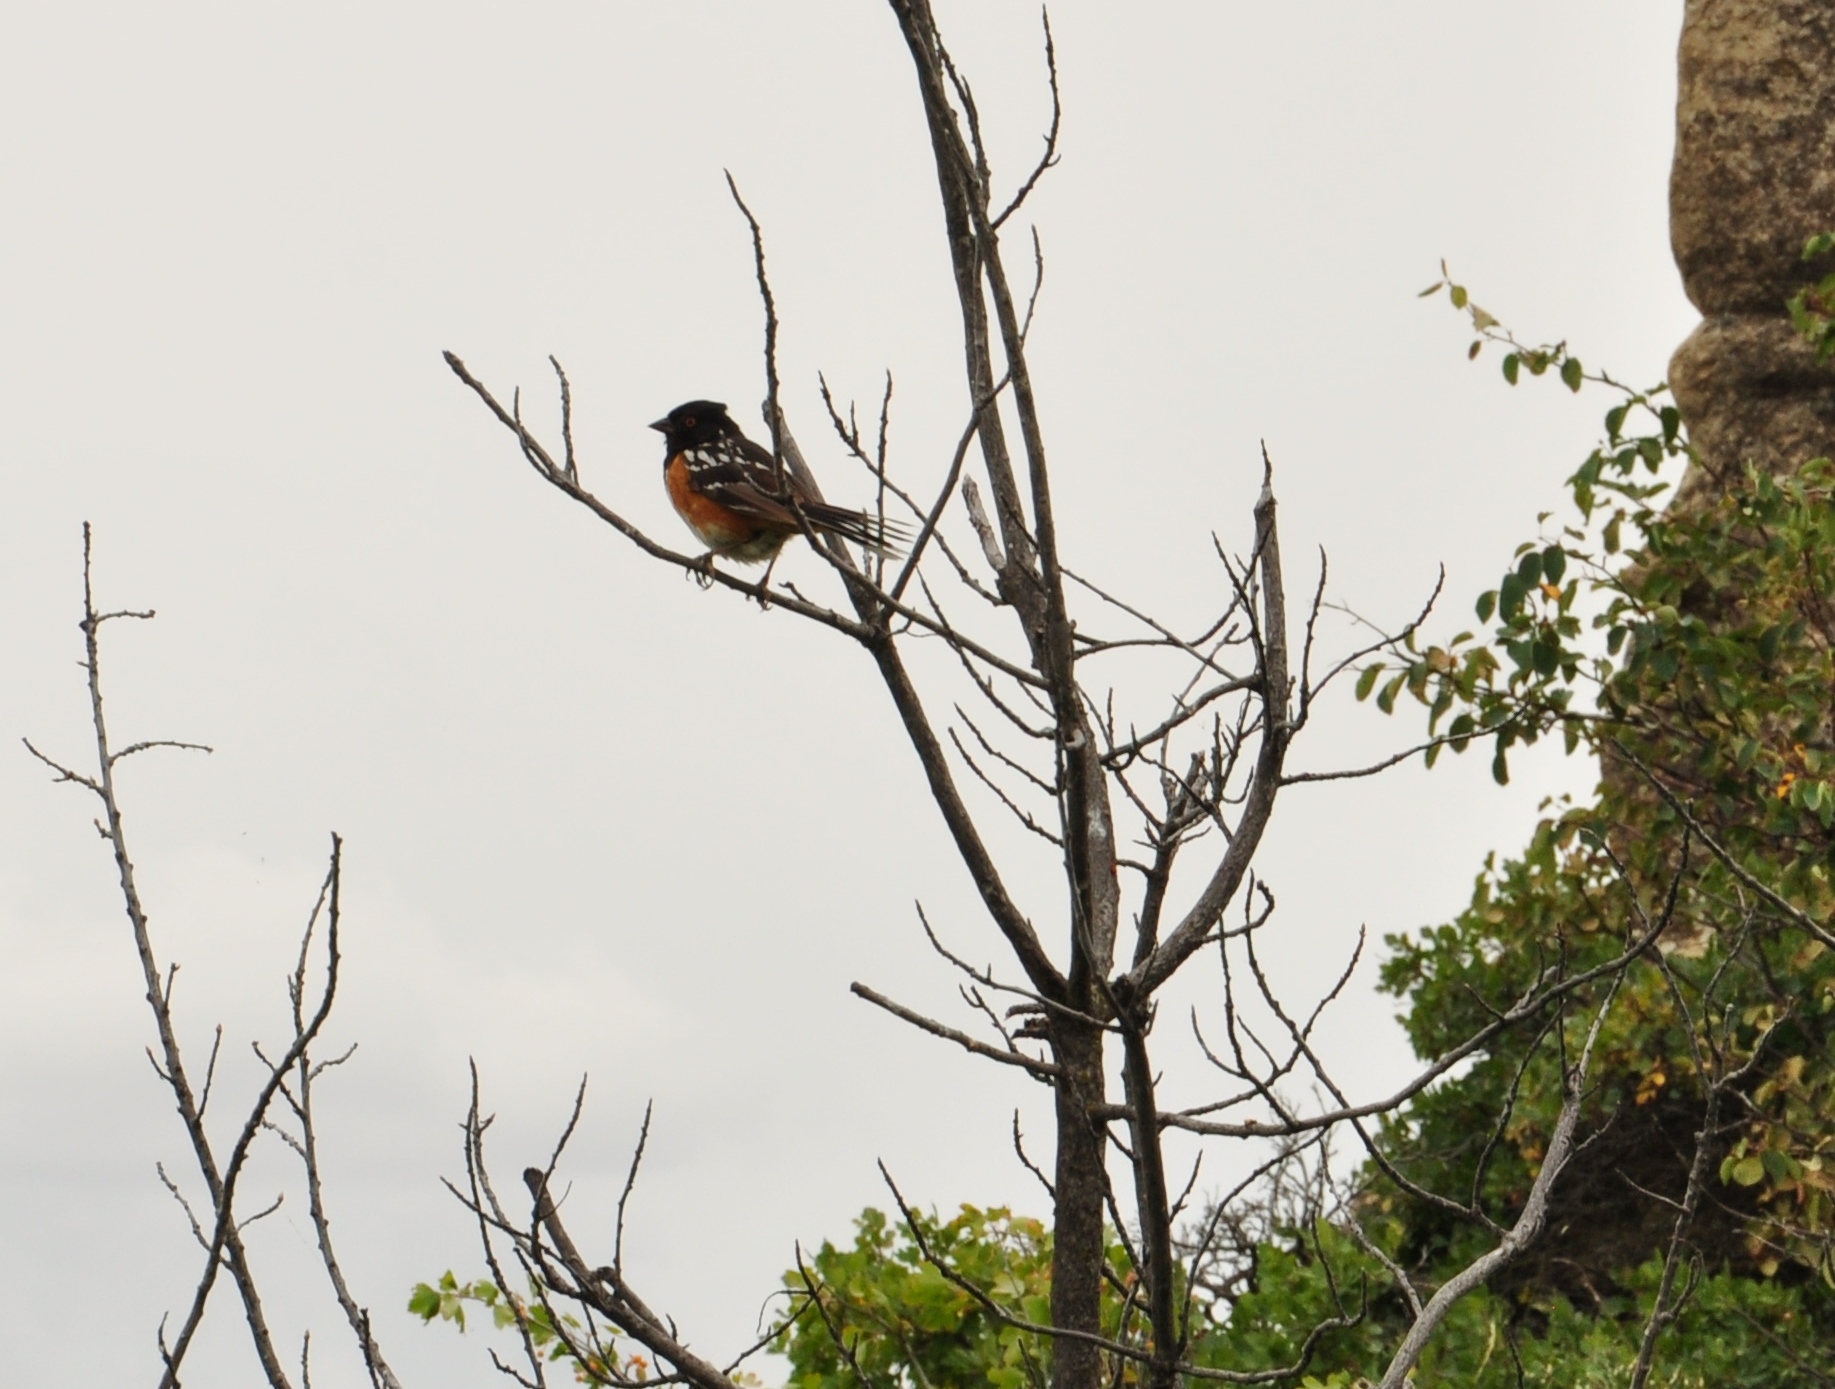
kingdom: Animalia
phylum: Chordata
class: Aves
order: Passeriformes
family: Passerellidae
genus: Pipilo
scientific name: Pipilo maculatus
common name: Spotted towhee
